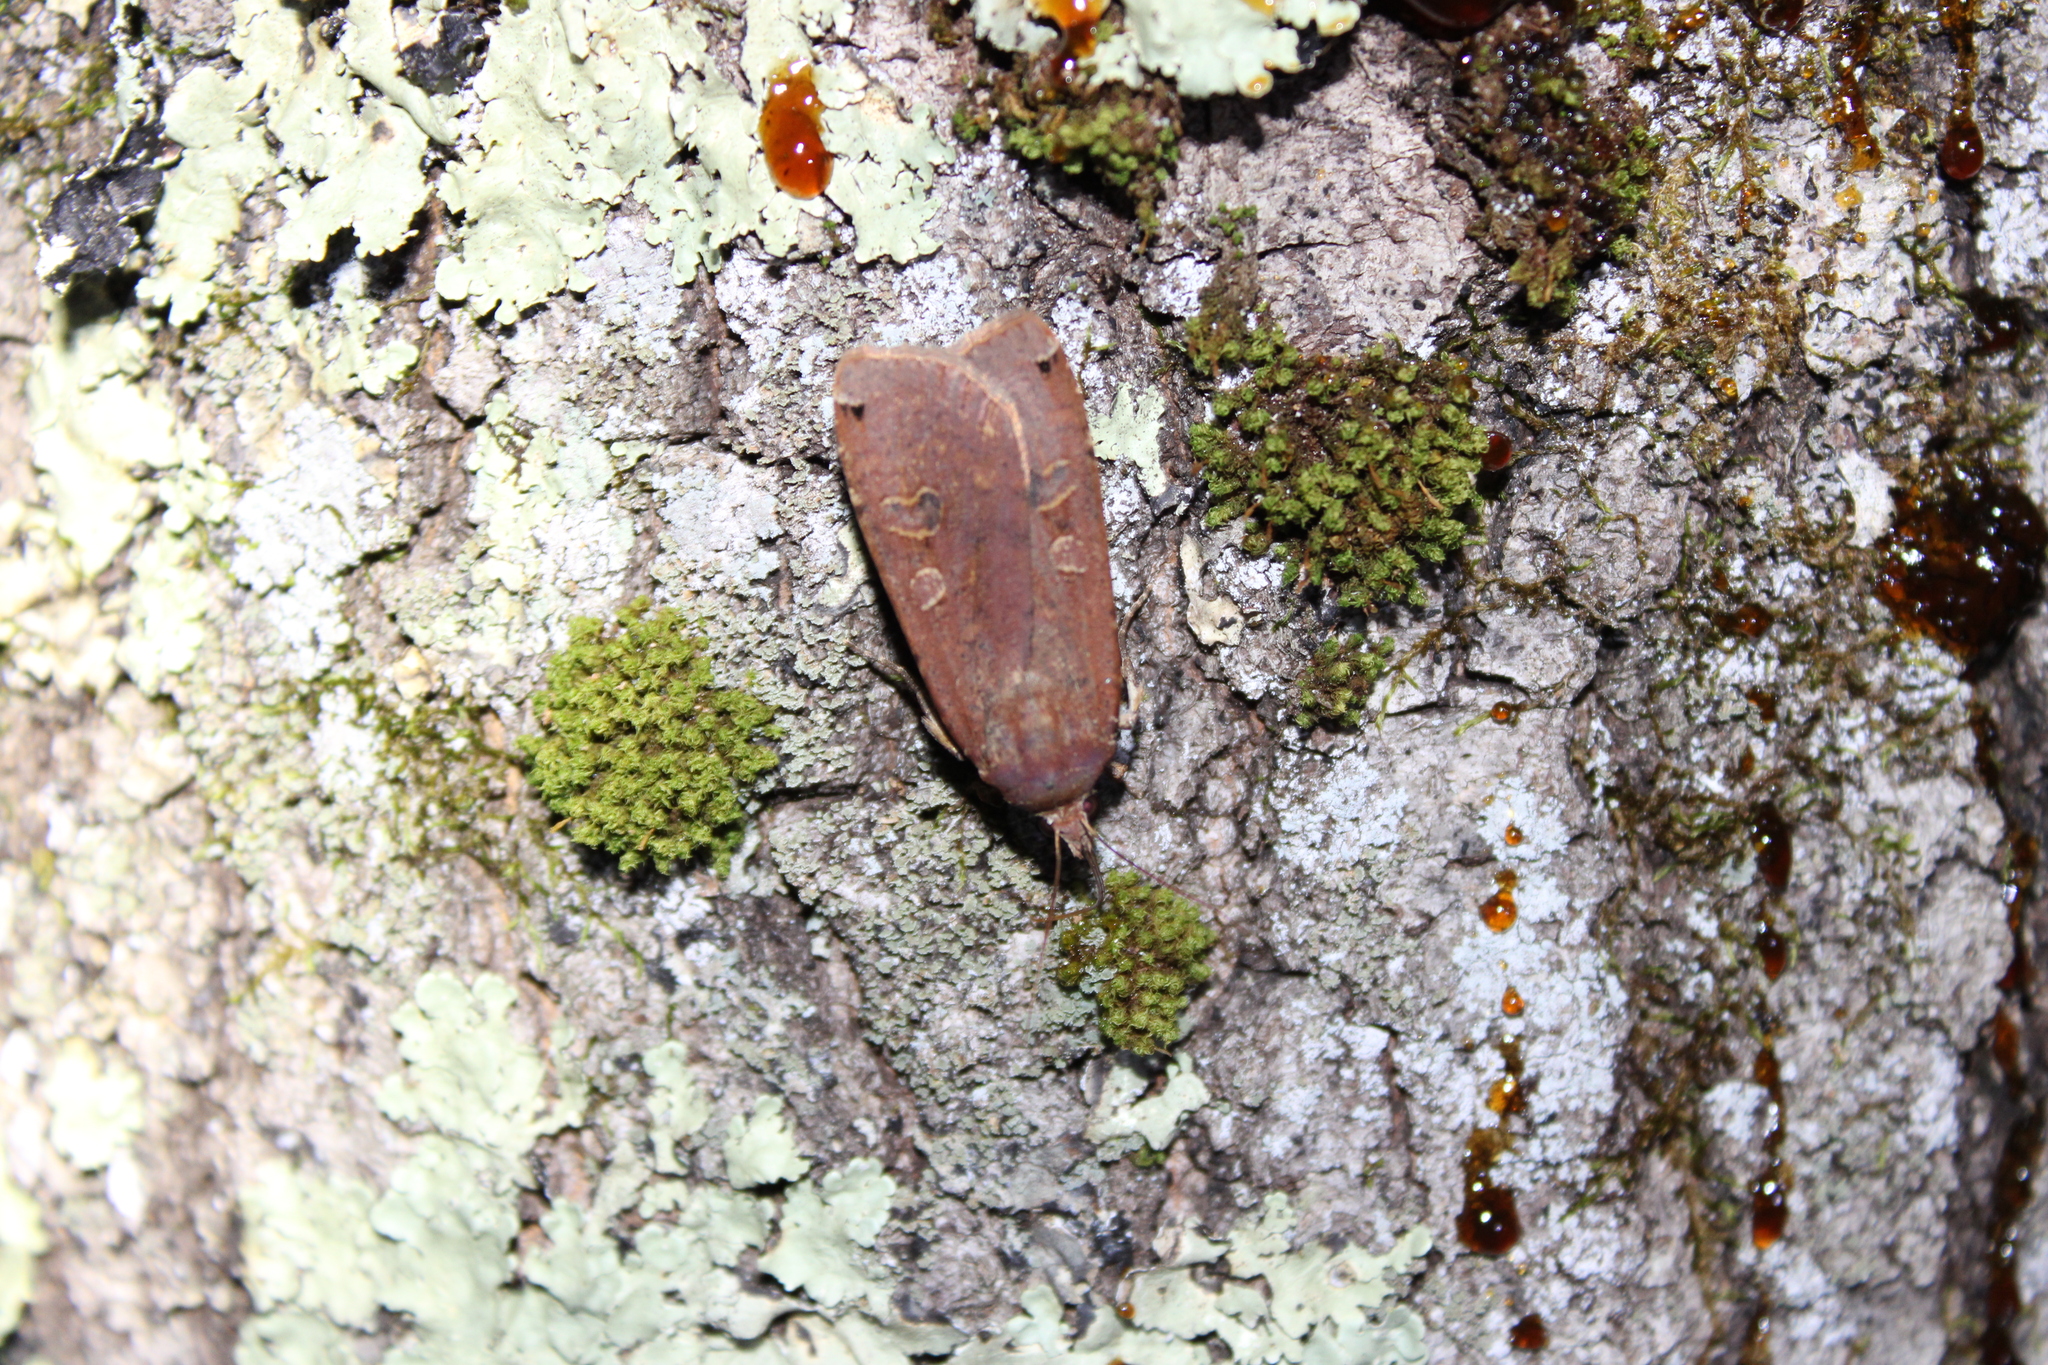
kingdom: Animalia
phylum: Arthropoda
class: Insecta
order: Lepidoptera
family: Noctuidae
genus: Noctua
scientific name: Noctua pronuba
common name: Large yellow underwing
